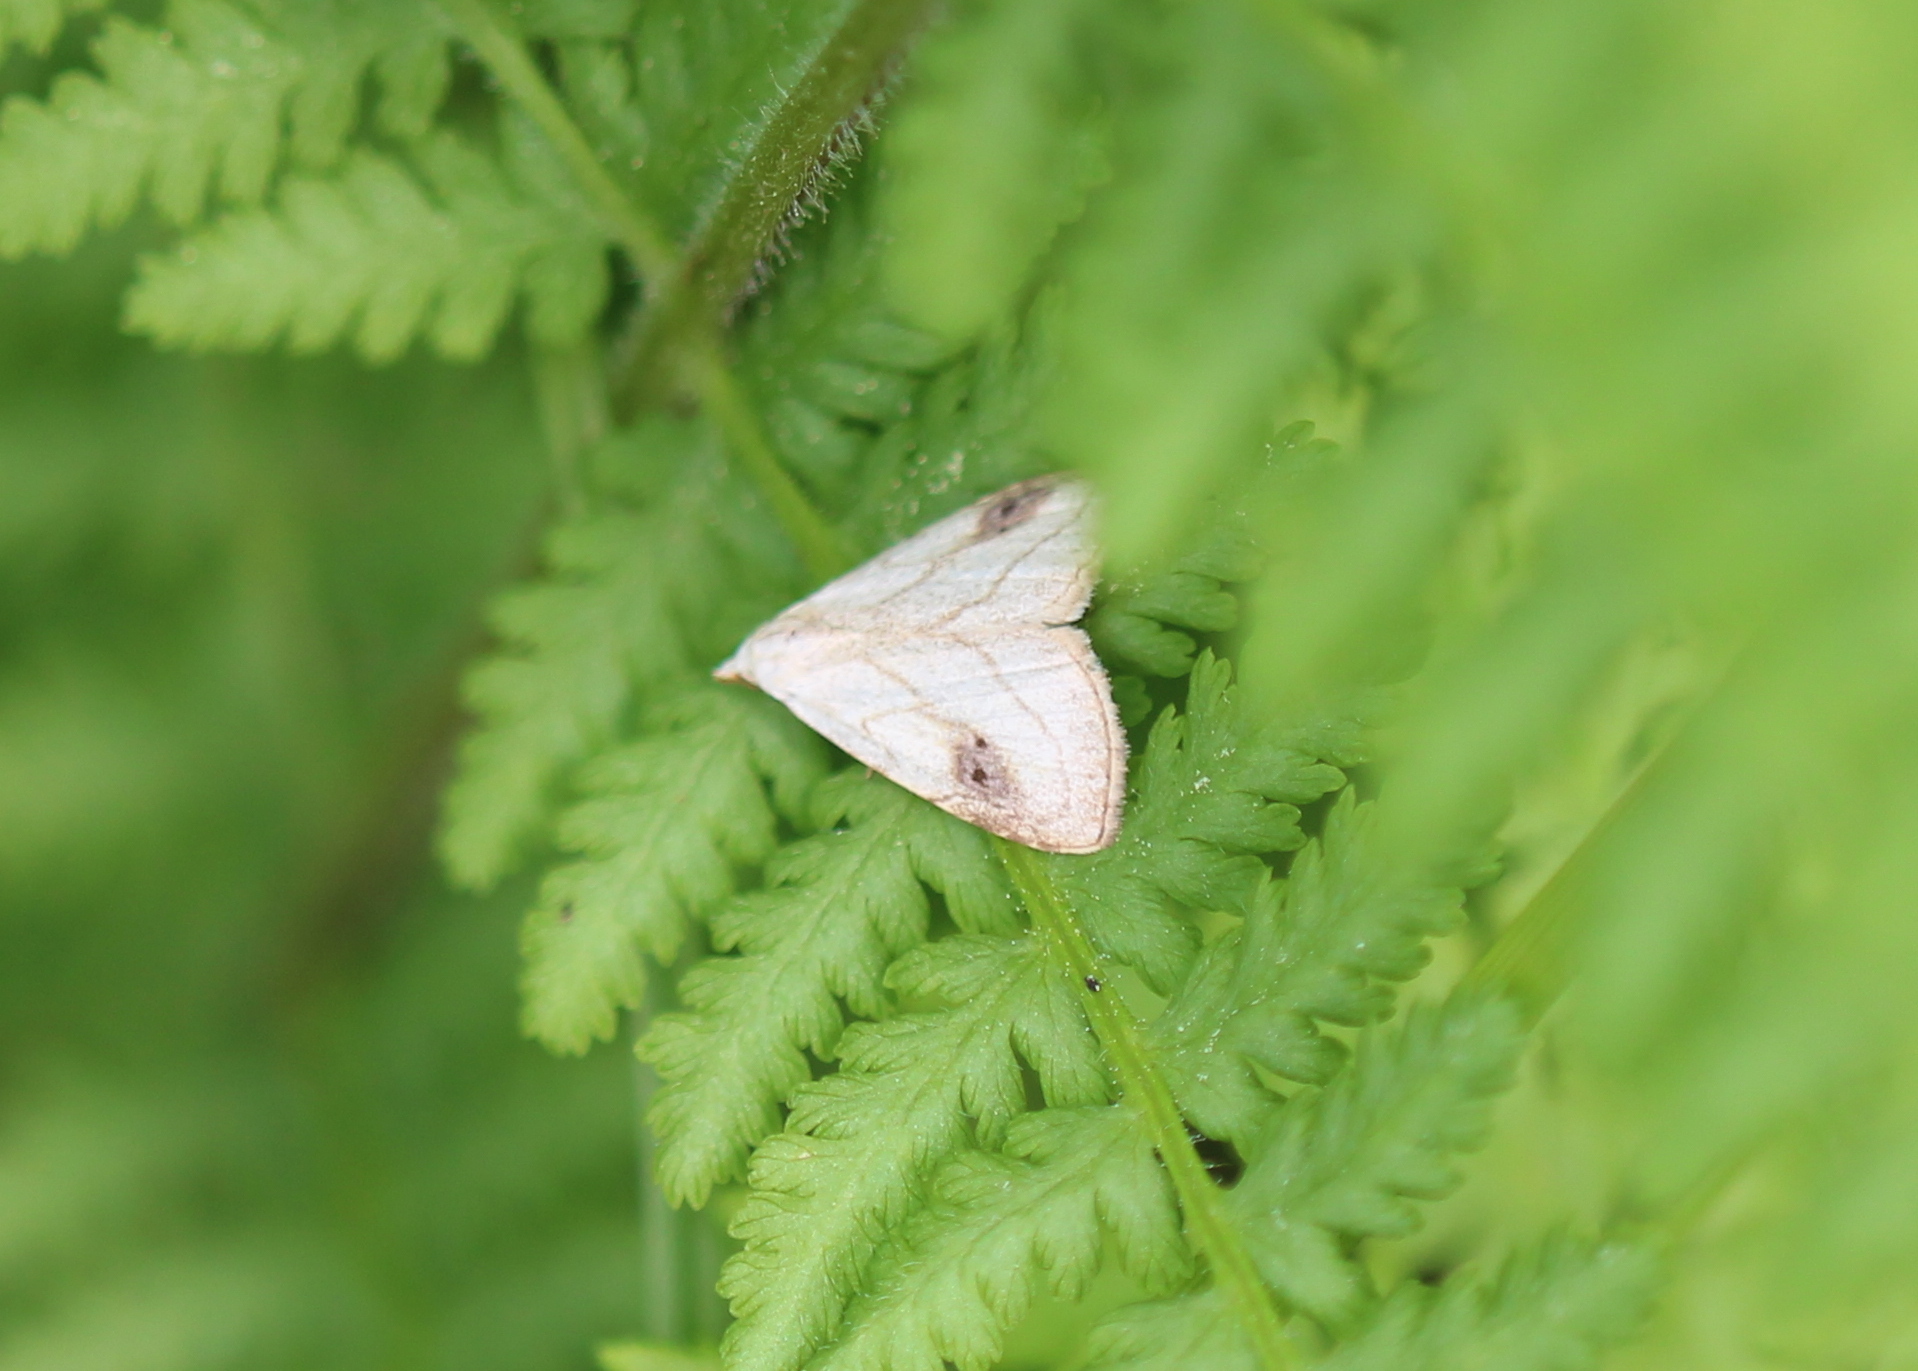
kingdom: Animalia
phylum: Arthropoda
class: Insecta
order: Lepidoptera
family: Erebidae
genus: Rivula
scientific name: Rivula propinqualis
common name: Spotted grass moth
